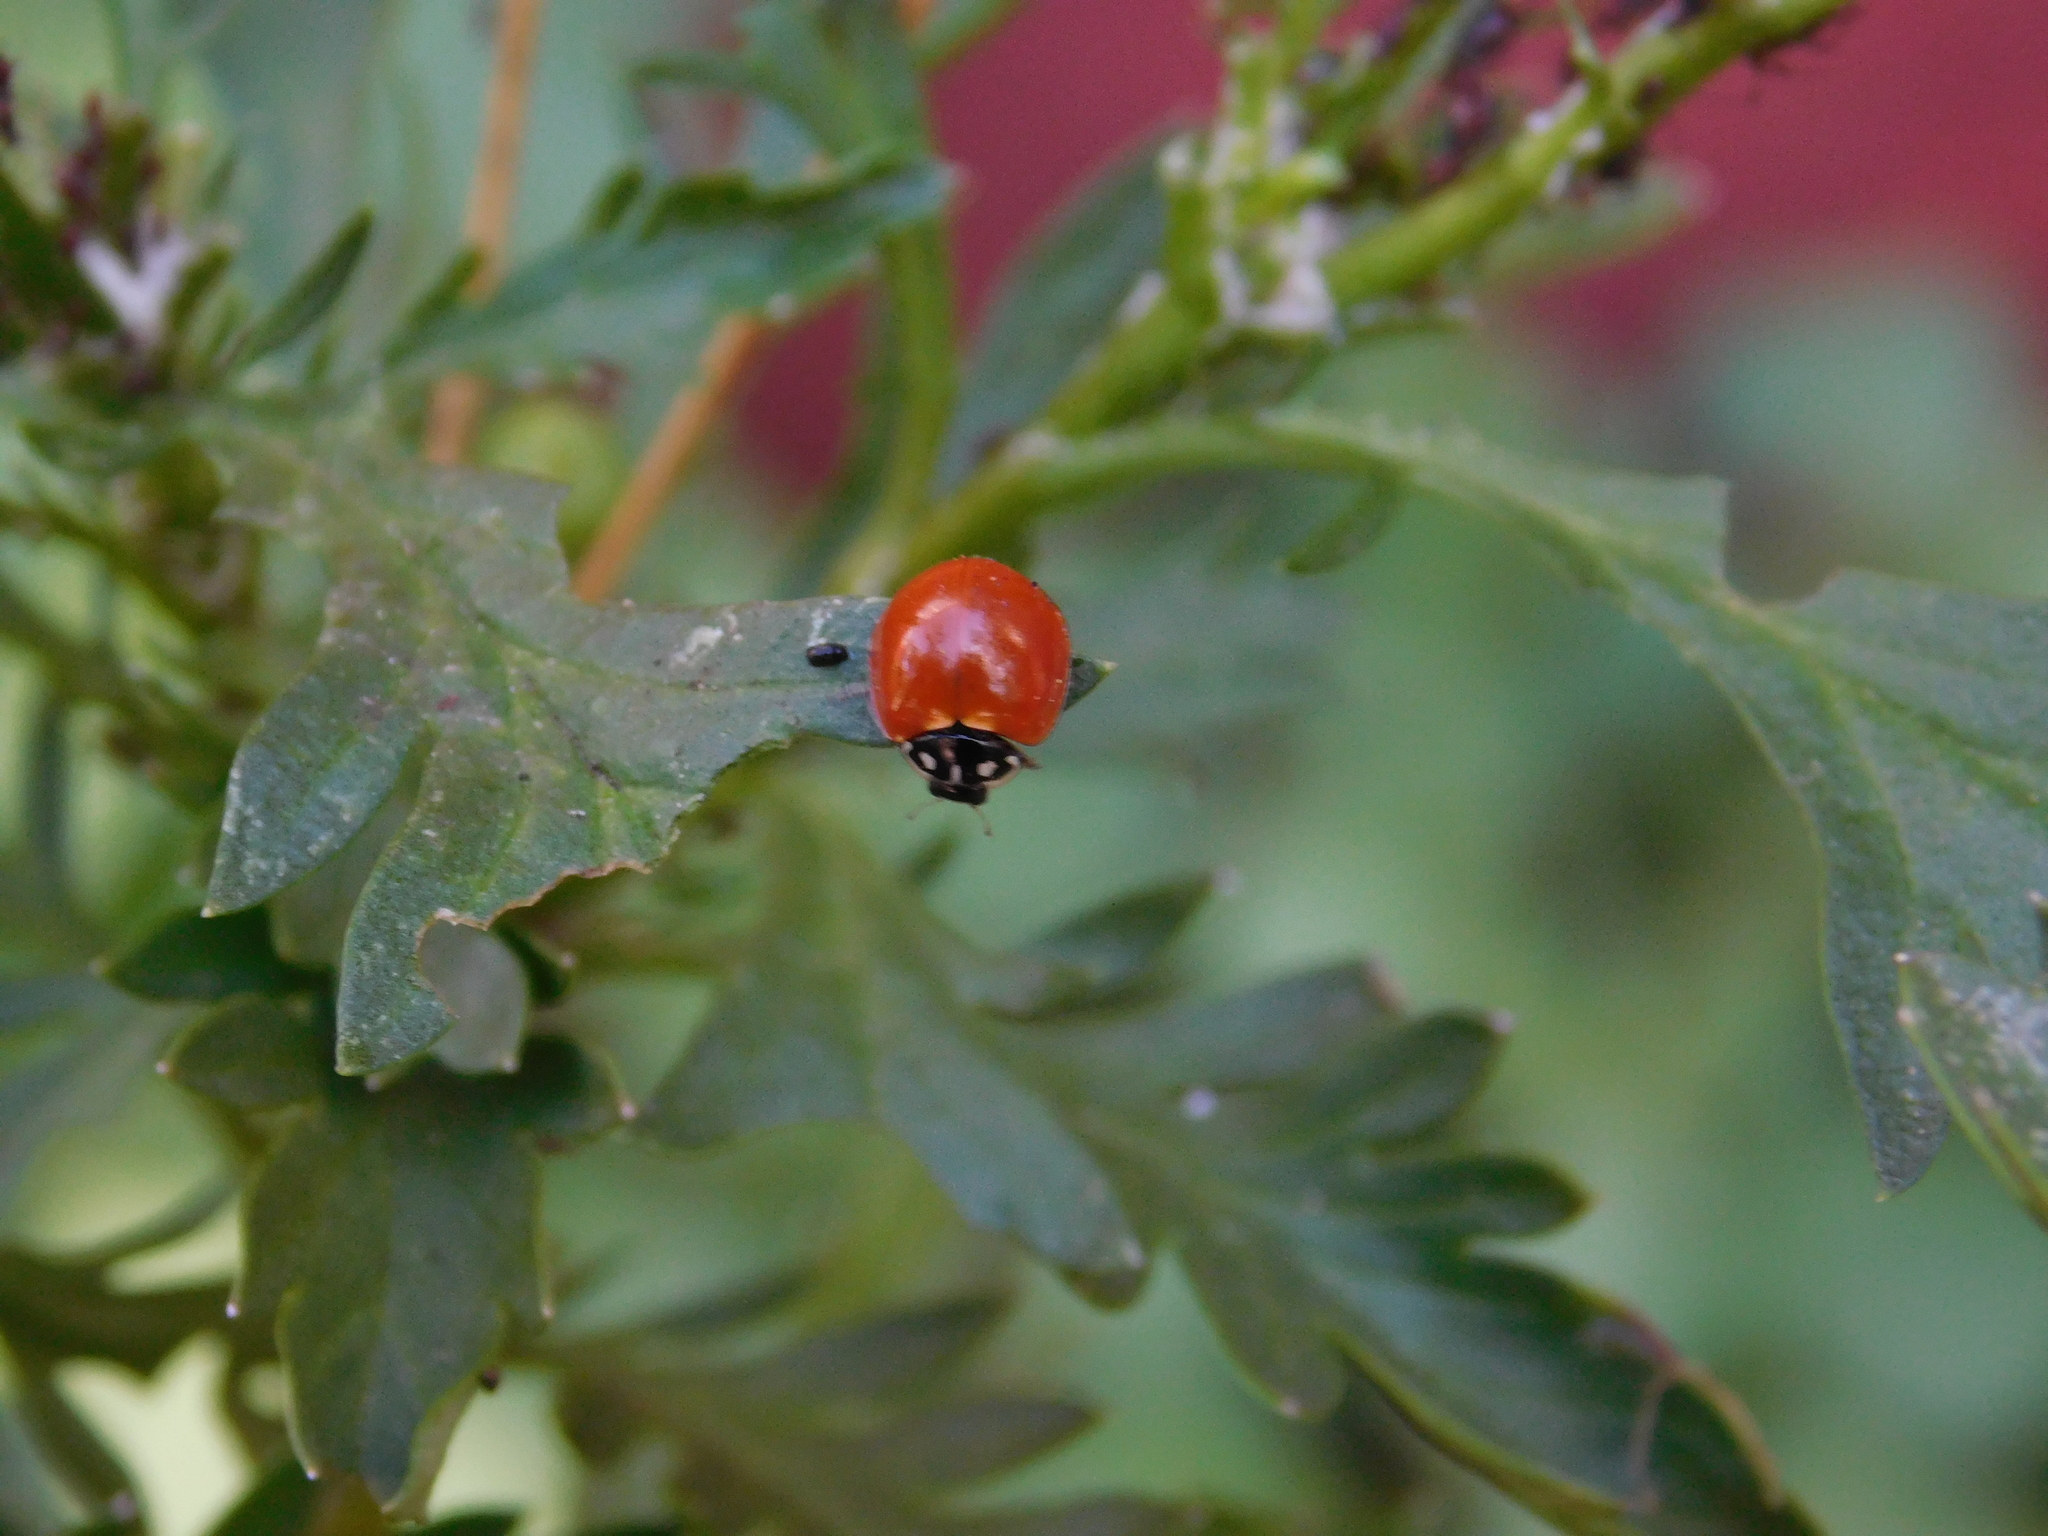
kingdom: Animalia
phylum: Arthropoda
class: Insecta
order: Coleoptera
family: Coccinellidae
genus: Cycloneda
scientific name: Cycloneda sanguinea
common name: Ladybird beetle
